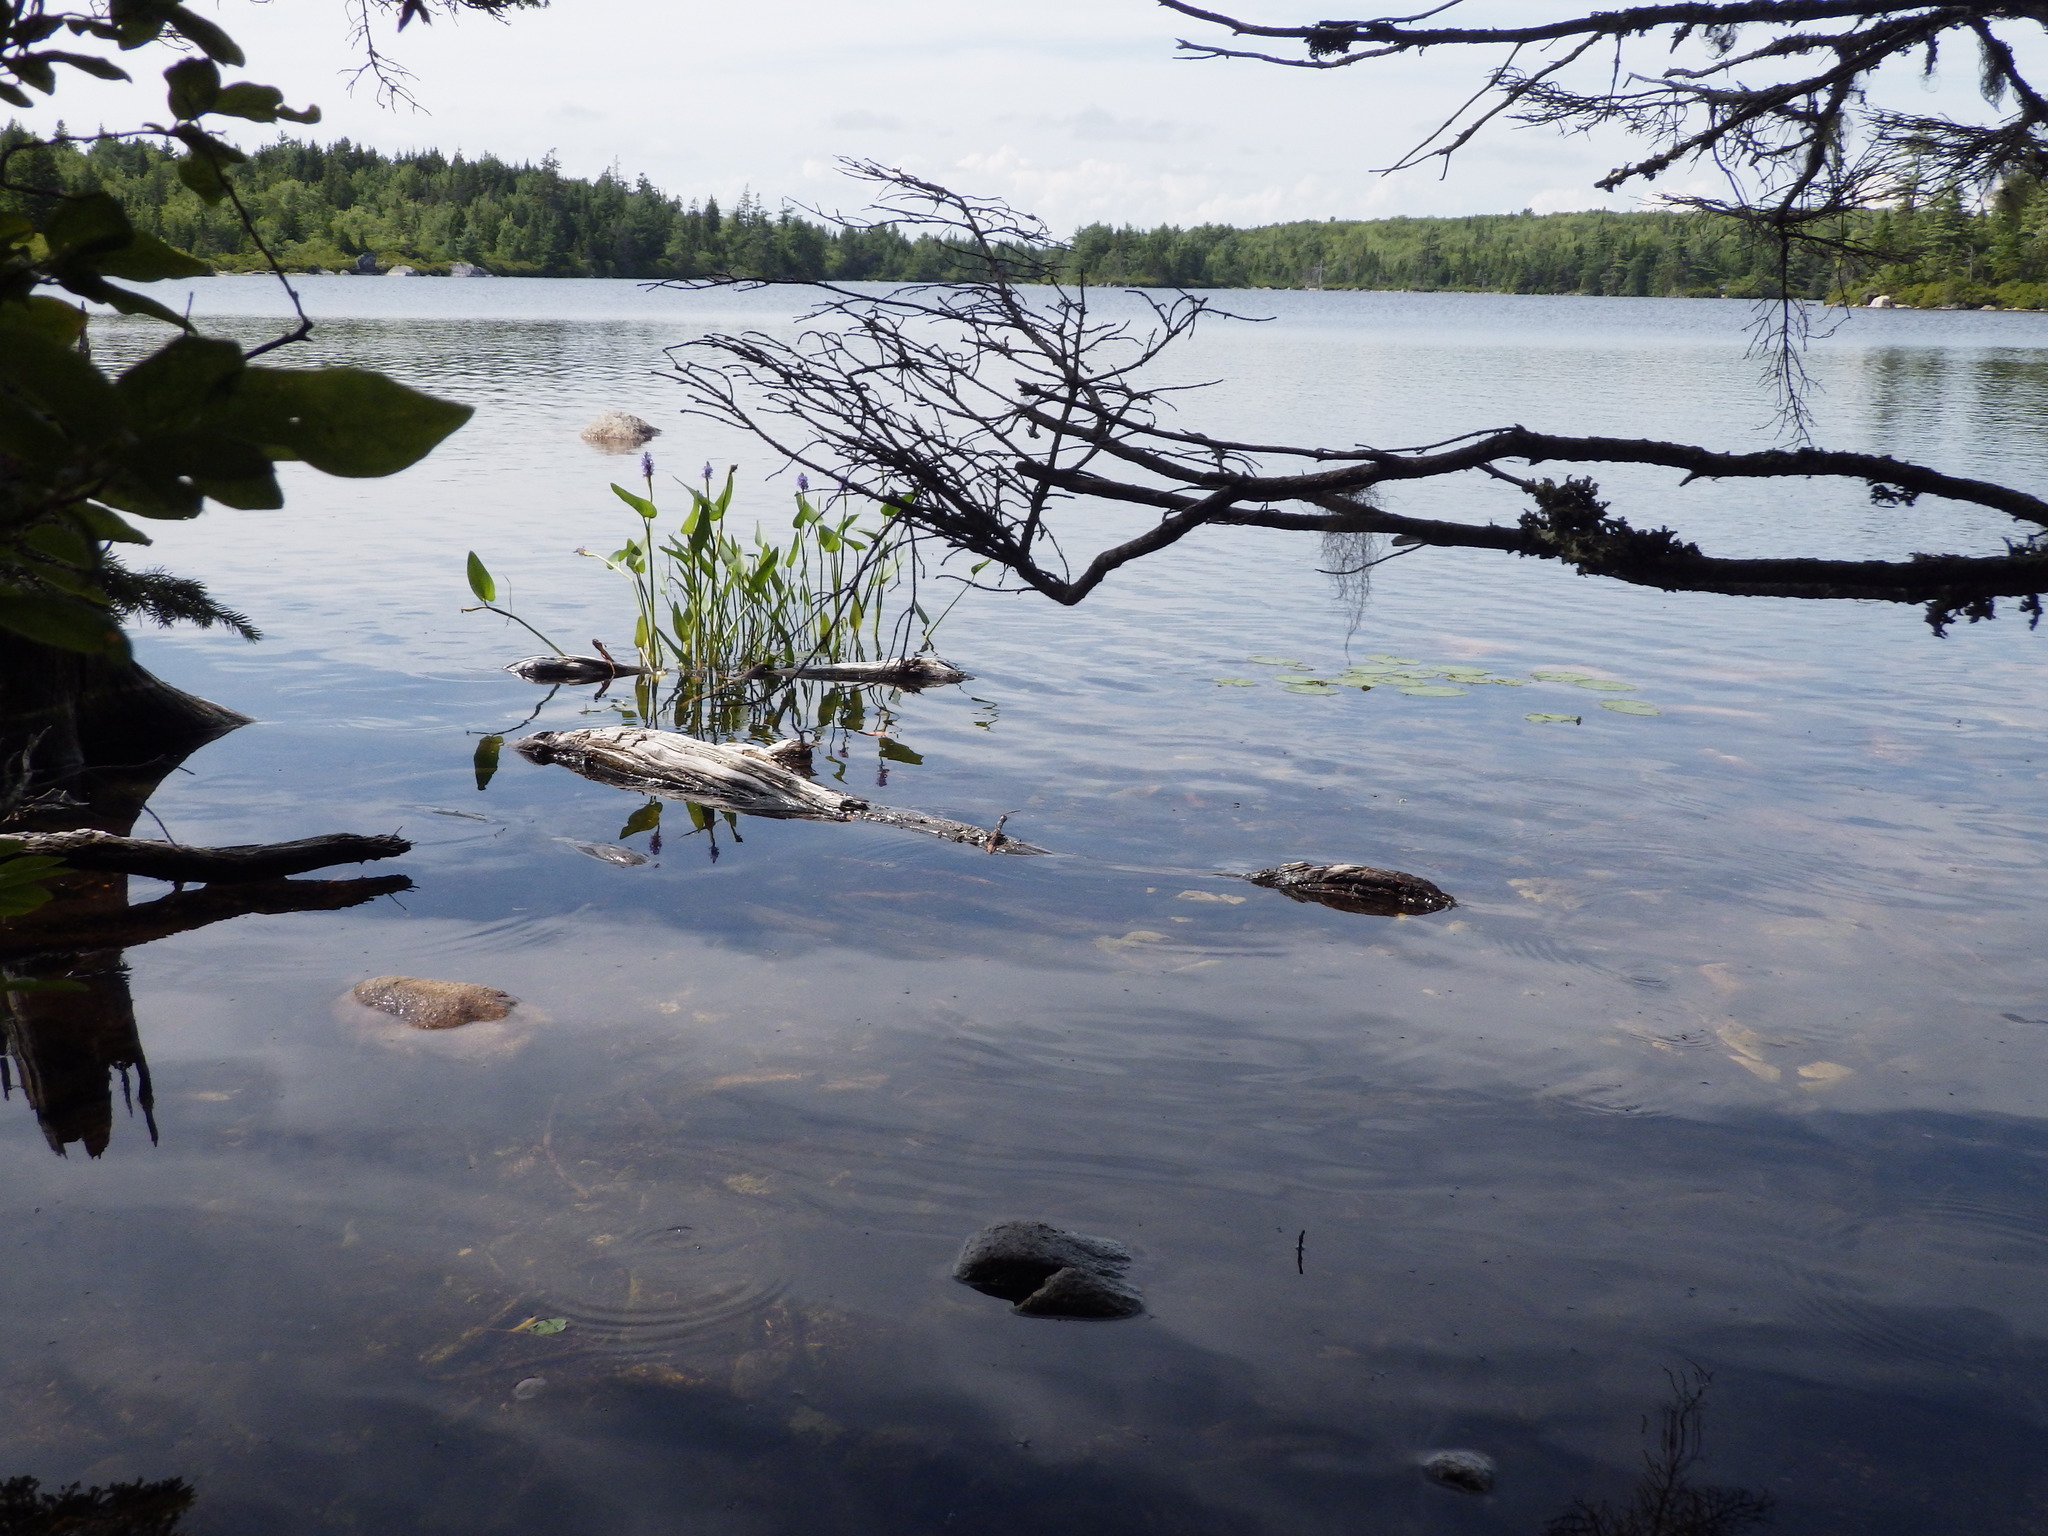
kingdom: Plantae
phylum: Tracheophyta
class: Liliopsida
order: Commelinales
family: Pontederiaceae
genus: Pontederia
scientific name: Pontederia cordata
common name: Pickerelweed
